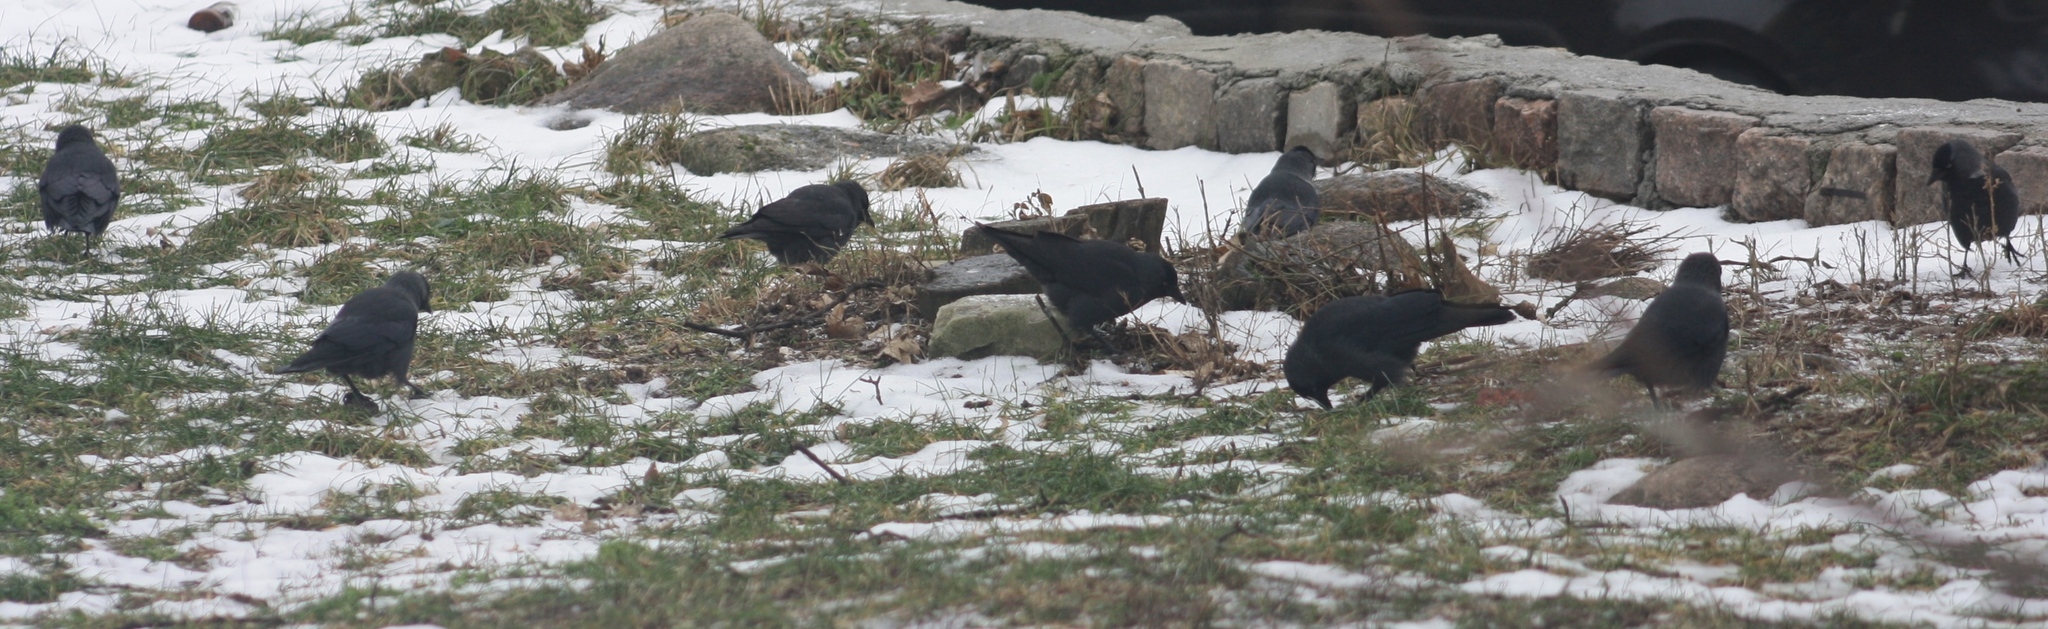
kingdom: Animalia
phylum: Chordata
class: Aves
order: Passeriformes
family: Corvidae
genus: Coloeus
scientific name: Coloeus monedula
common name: Western jackdaw
